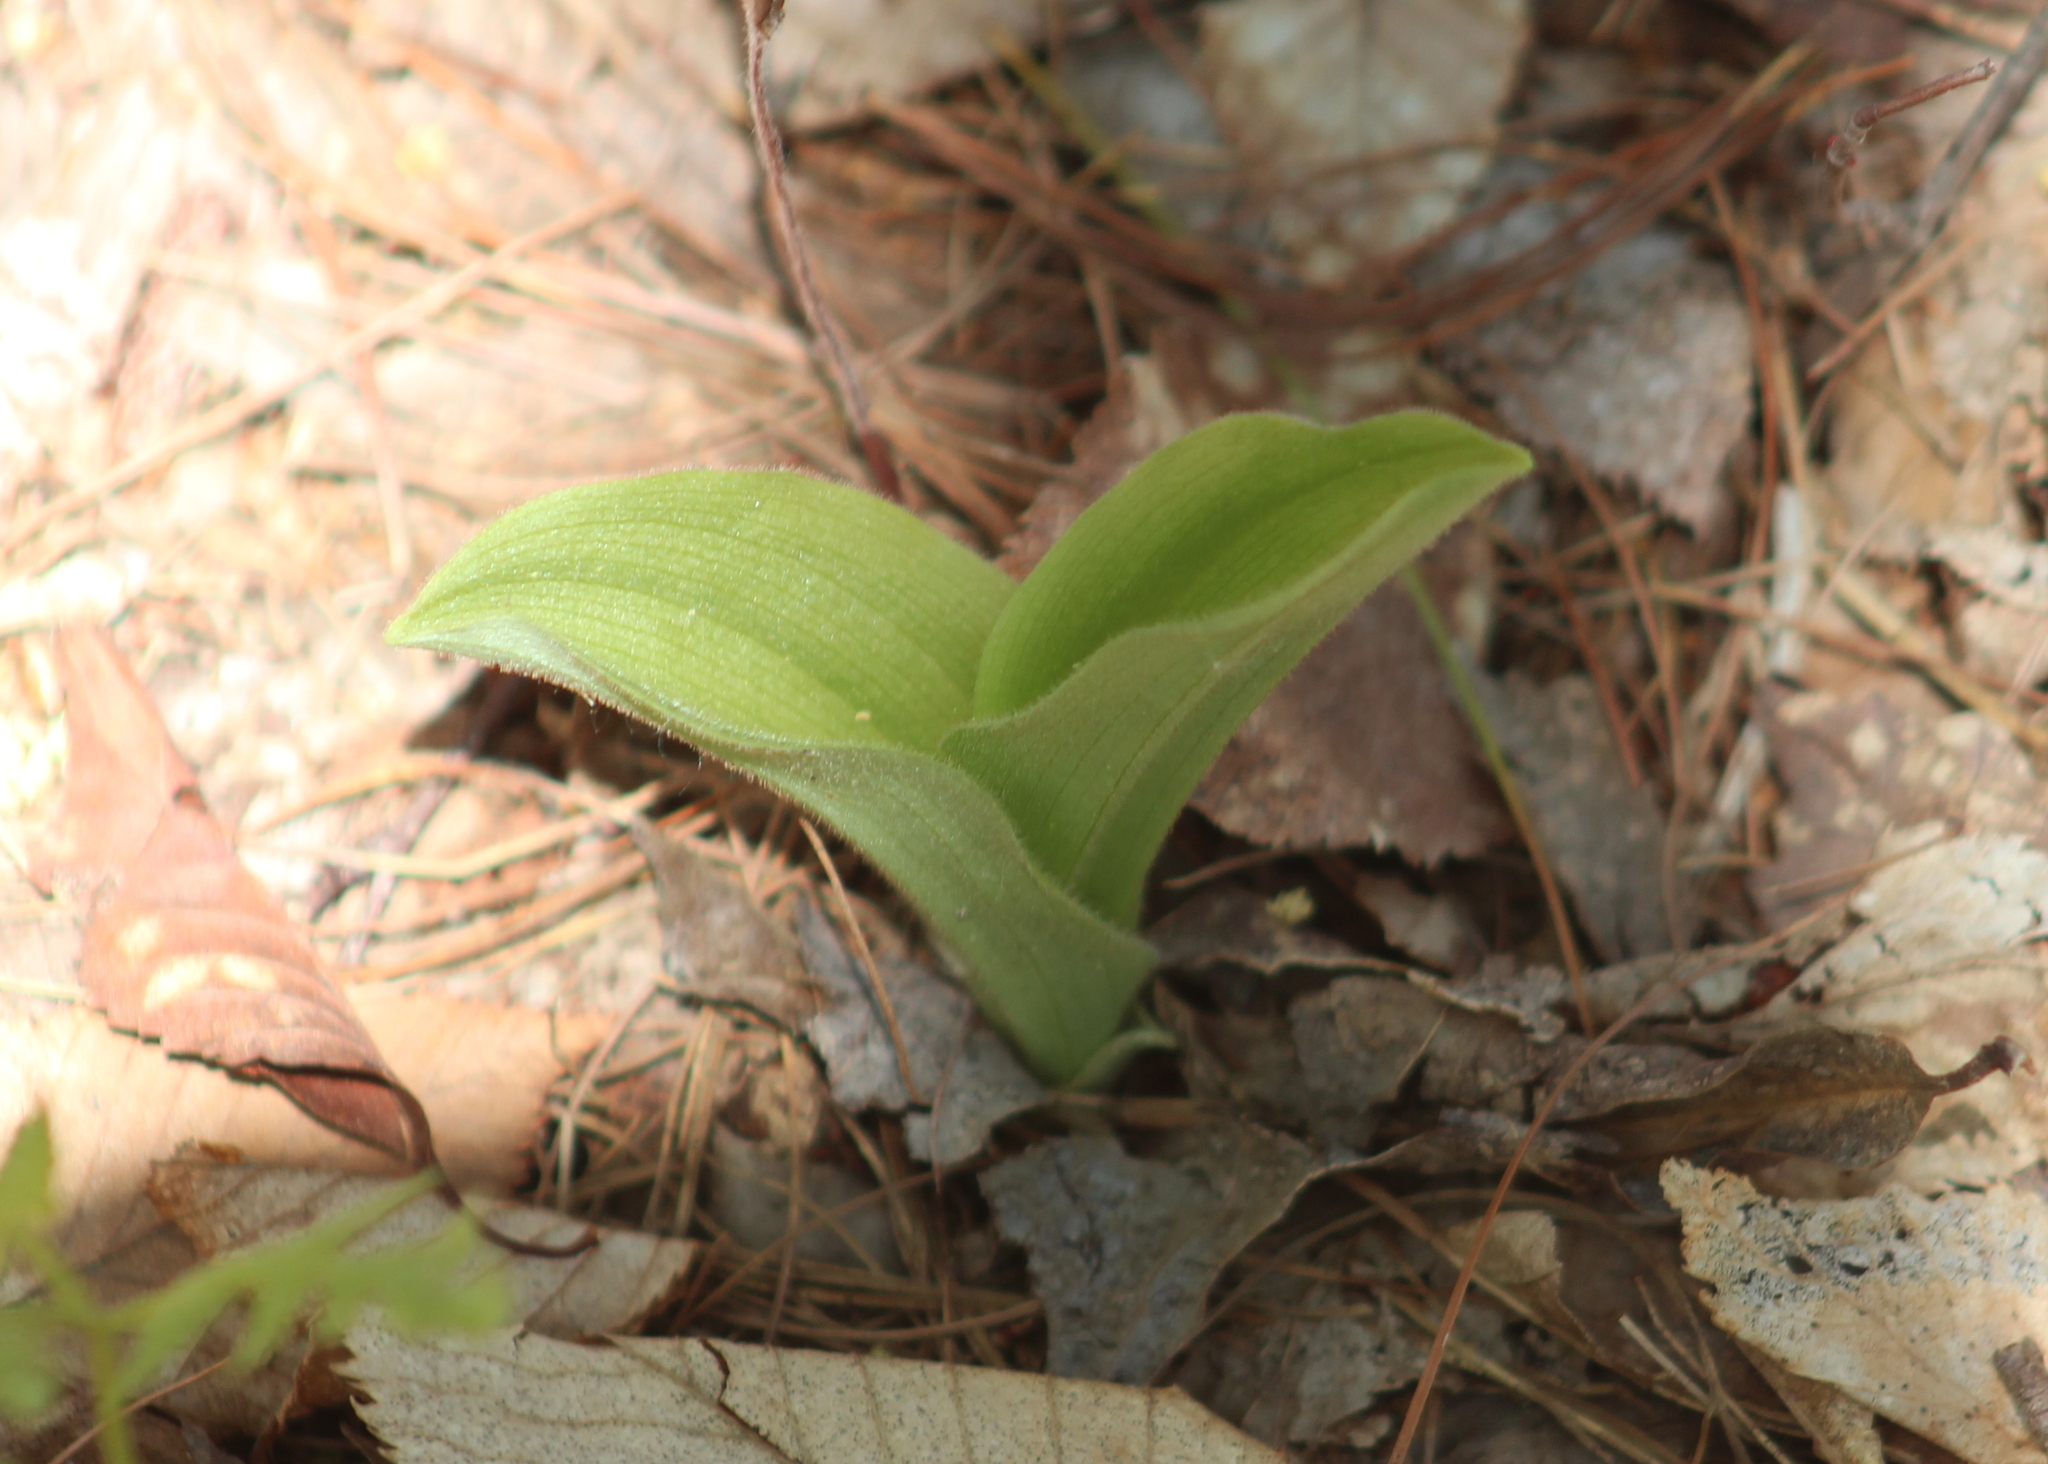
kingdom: Plantae
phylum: Tracheophyta
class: Liliopsida
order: Asparagales
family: Orchidaceae
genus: Cypripedium
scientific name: Cypripedium acaule
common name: Pink lady's-slipper
